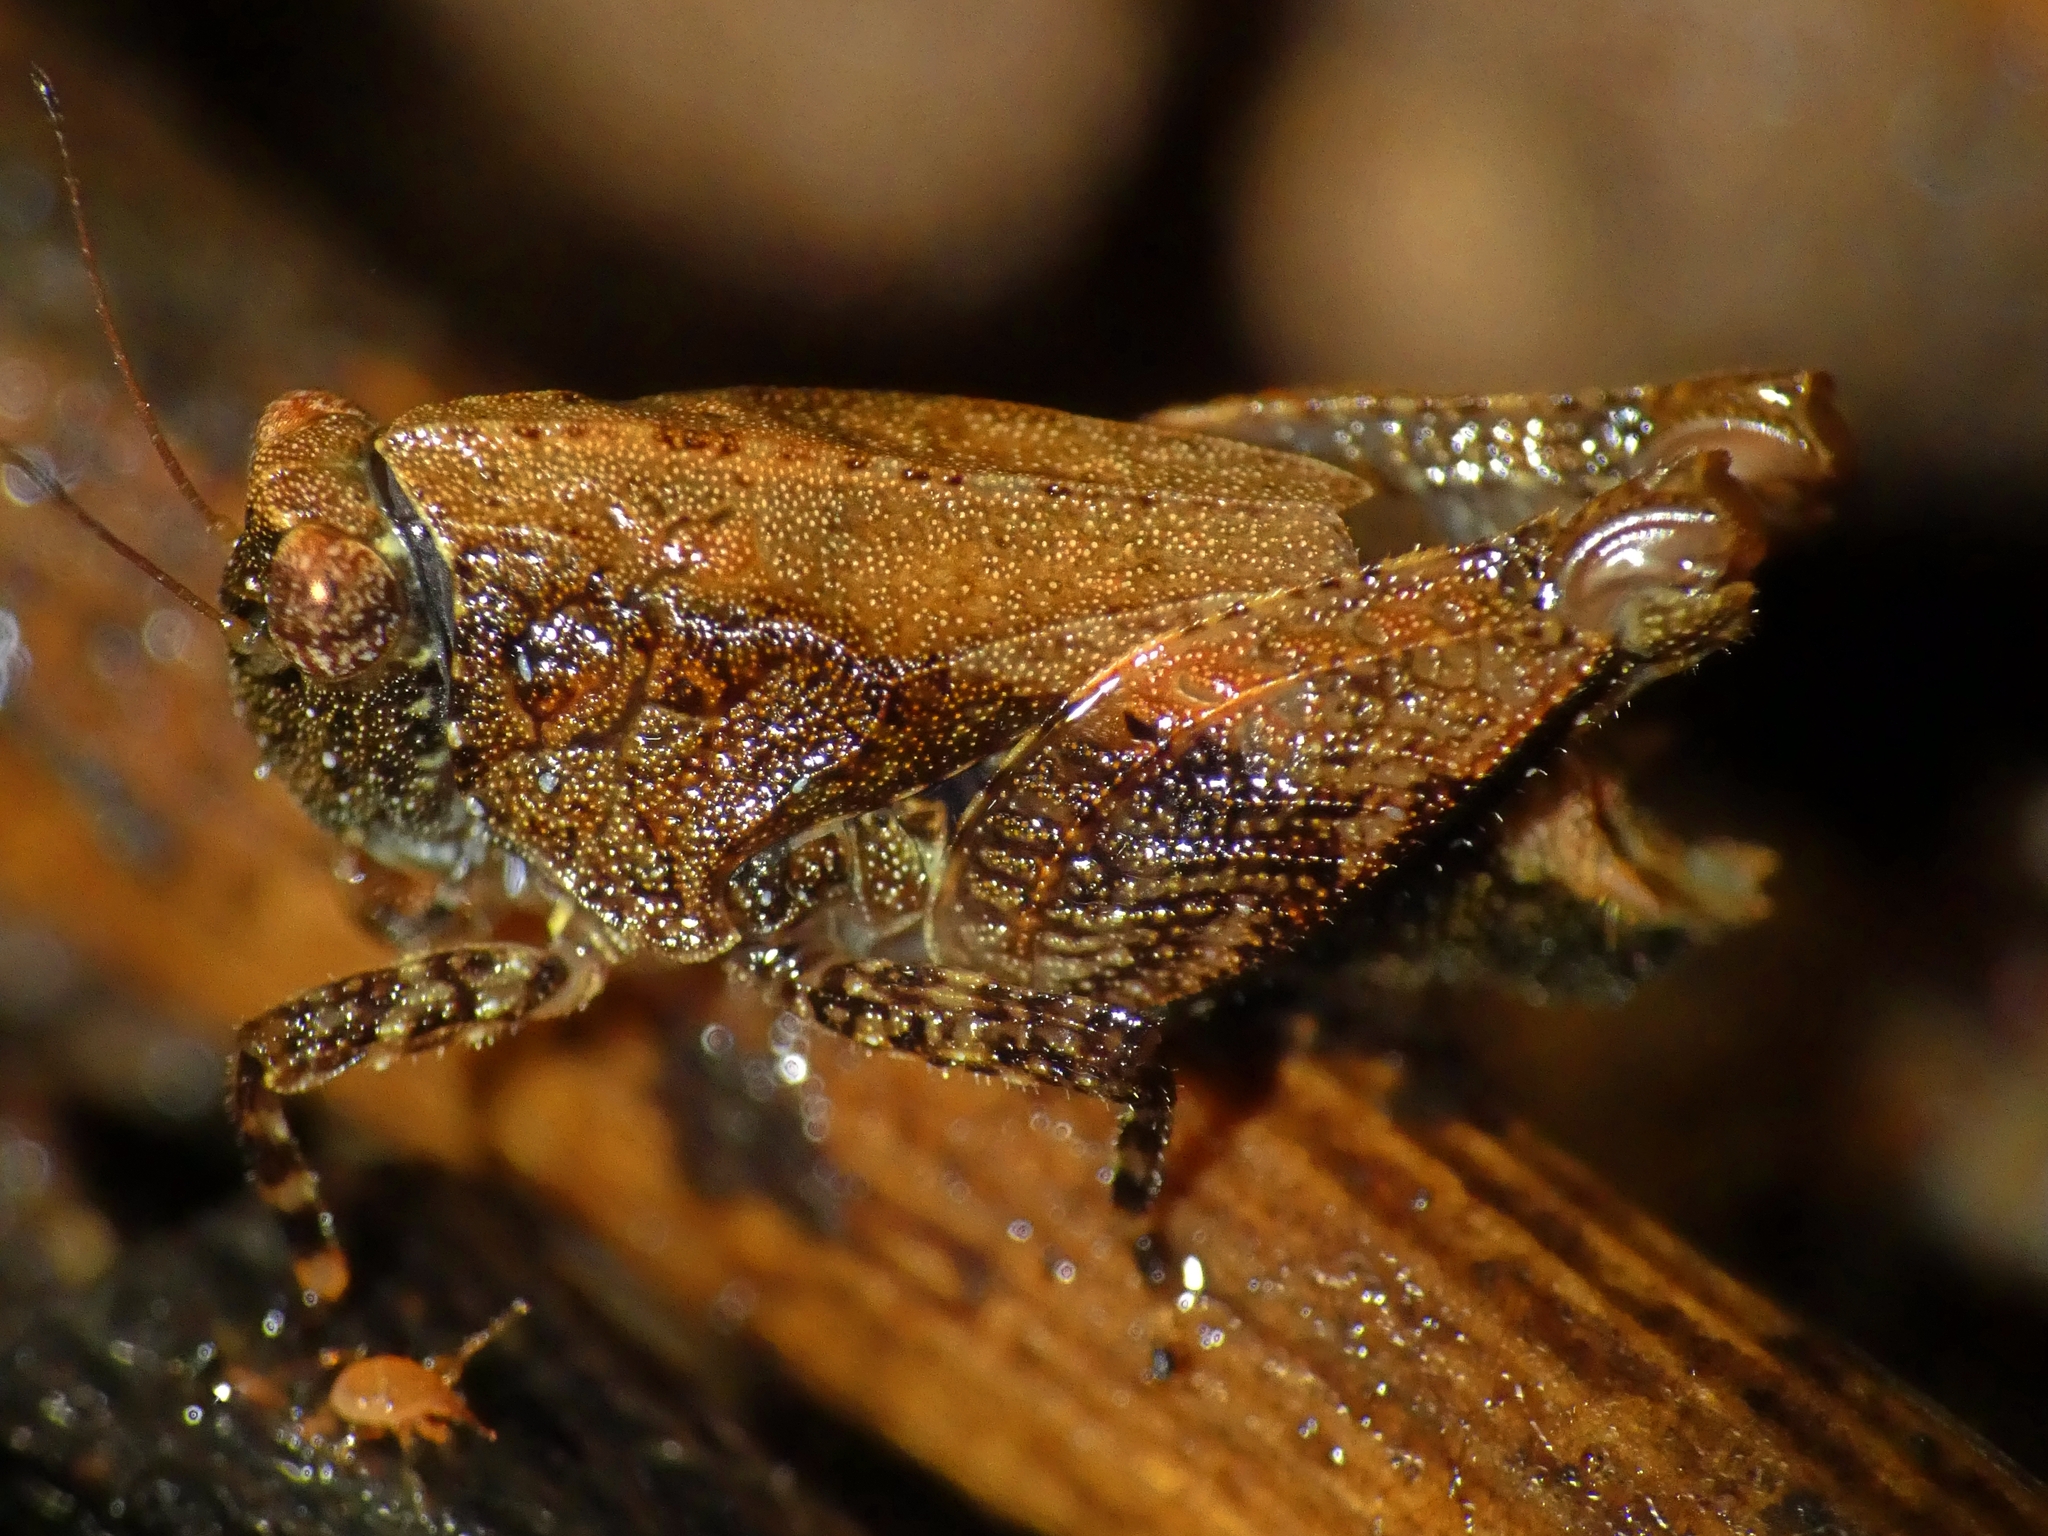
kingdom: Animalia
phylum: Arthropoda
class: Insecta
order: Orthoptera
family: Tetrigidae
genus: Anaselina
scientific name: Anaselina minor
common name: Tiny helmed groundhopper
